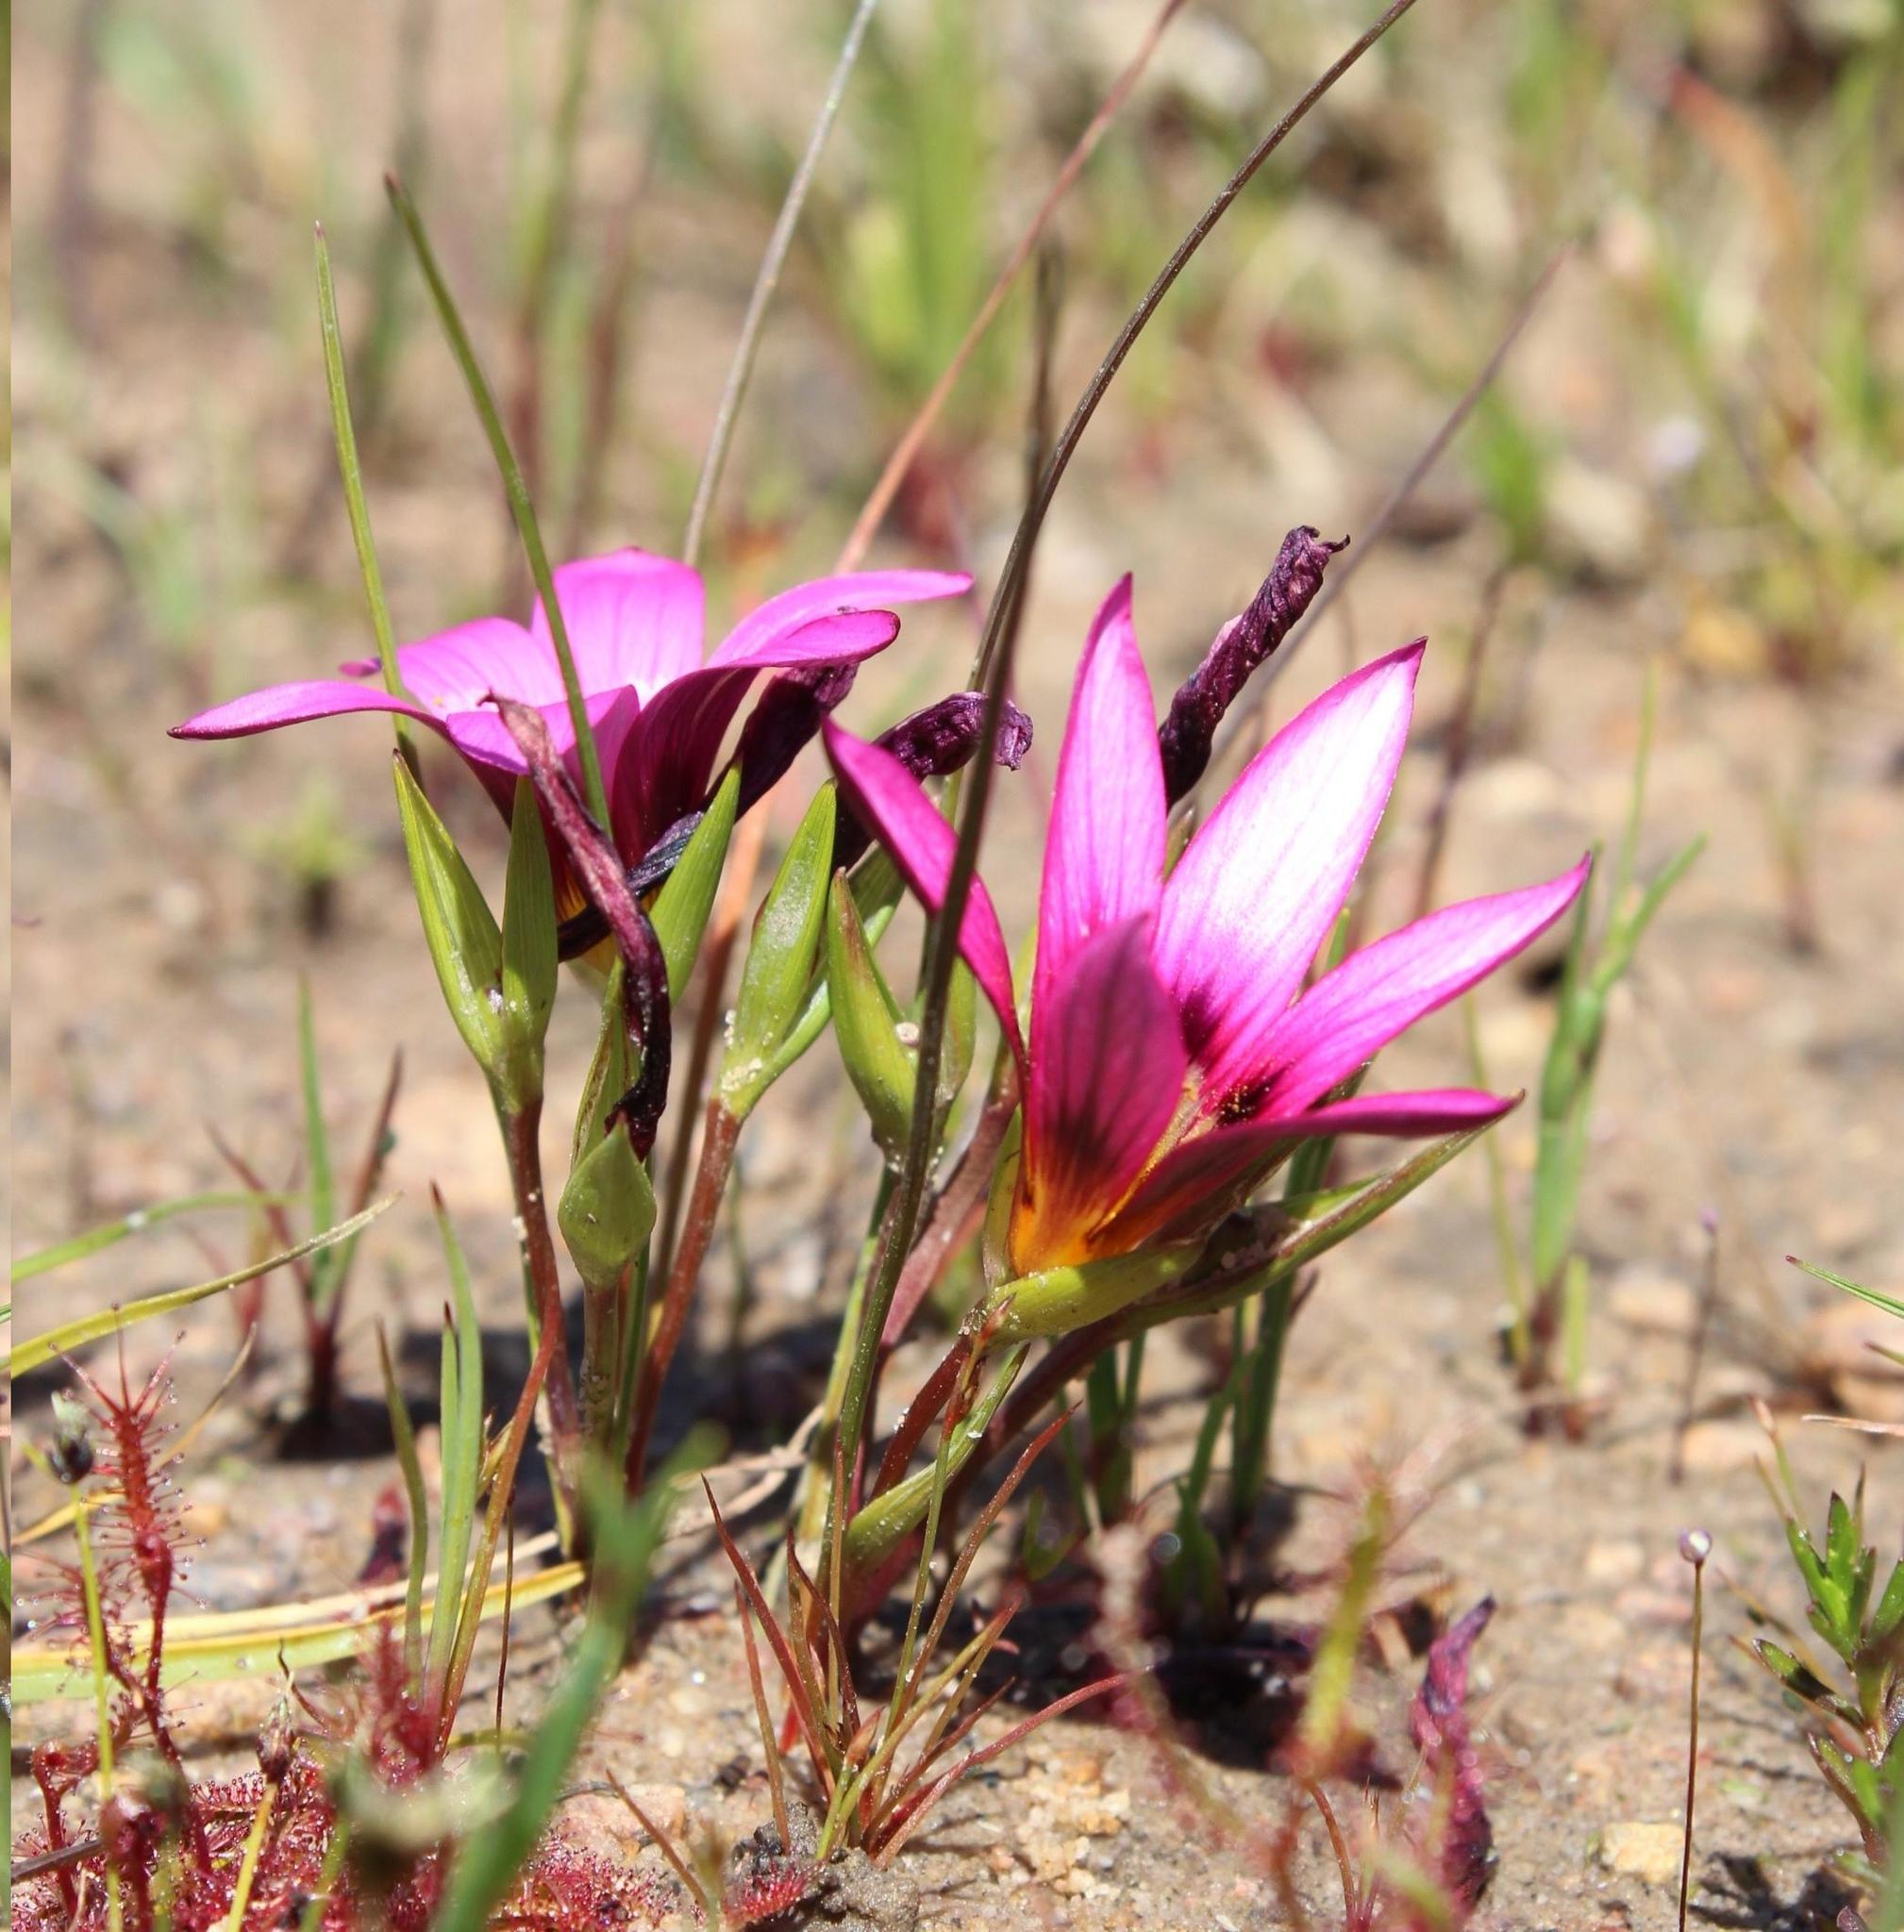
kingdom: Plantae
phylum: Tracheophyta
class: Liliopsida
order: Asparagales
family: Iridaceae
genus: Romulea
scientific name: Romulea hirsuta
